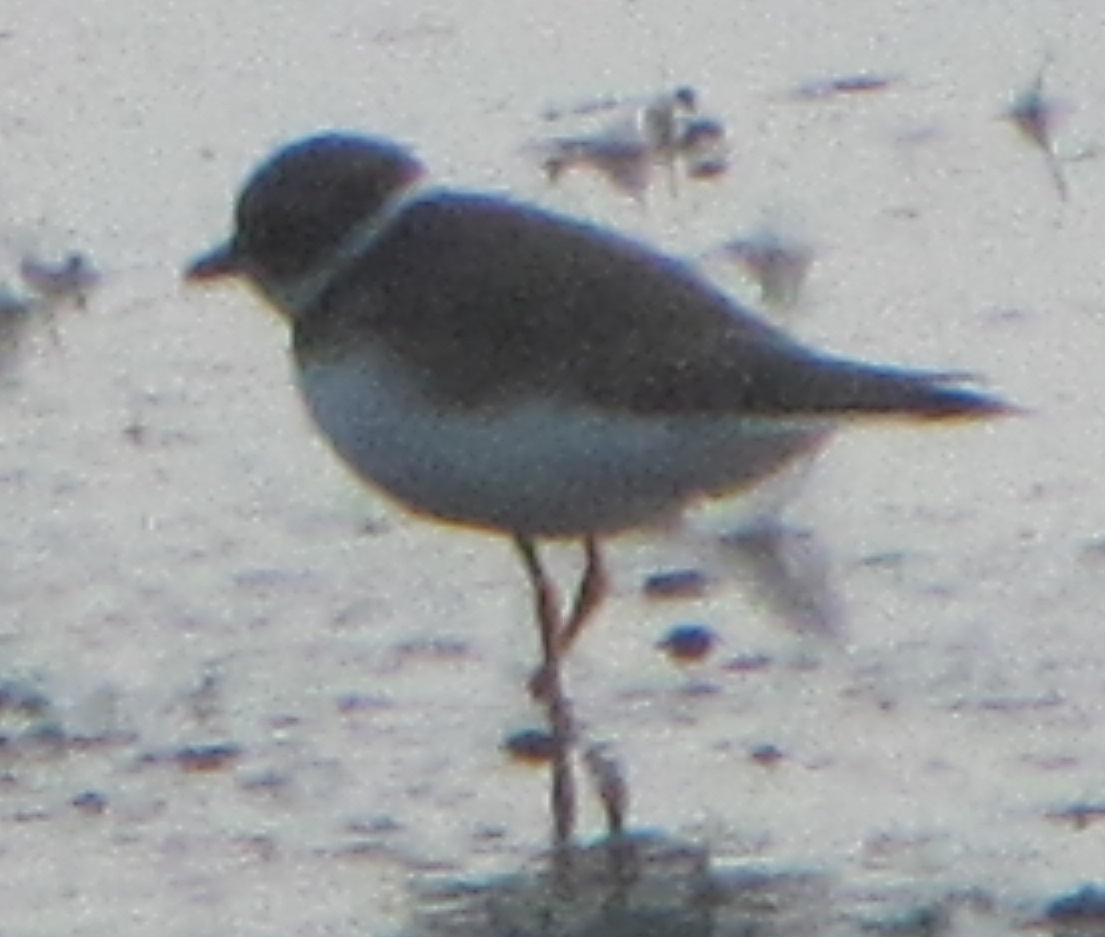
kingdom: Animalia
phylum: Chordata
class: Aves
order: Charadriiformes
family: Charadriidae
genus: Charadrius
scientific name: Charadrius semipalmatus
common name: Semipalmated plover
